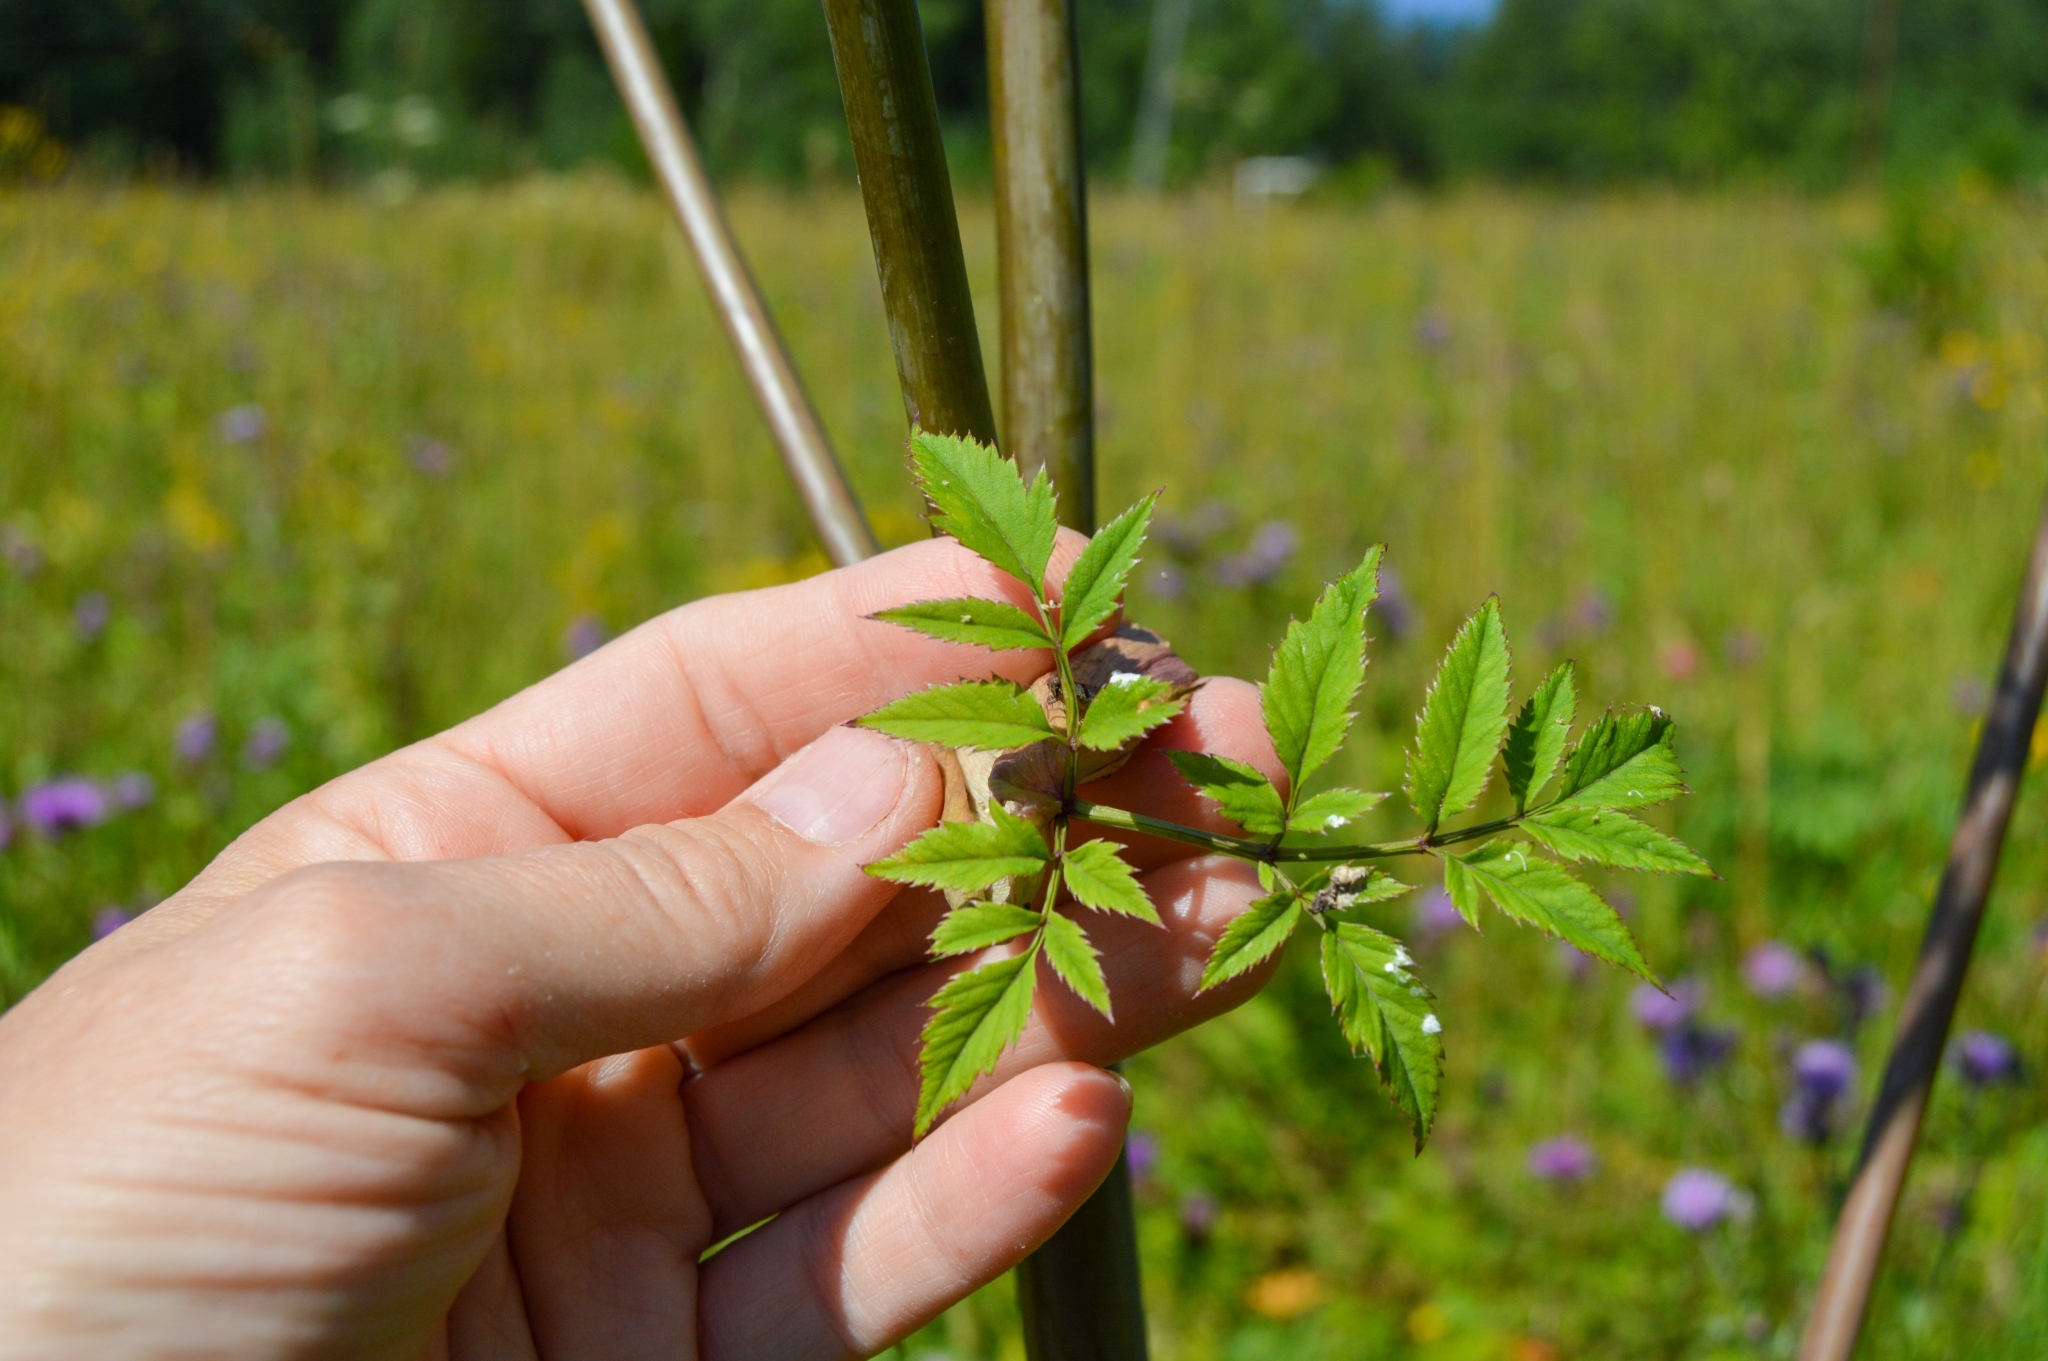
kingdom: Plantae
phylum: Tracheophyta
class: Magnoliopsida
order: Apiales
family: Apiaceae
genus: Angelica
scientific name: Angelica sylvestris
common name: Wild angelica
